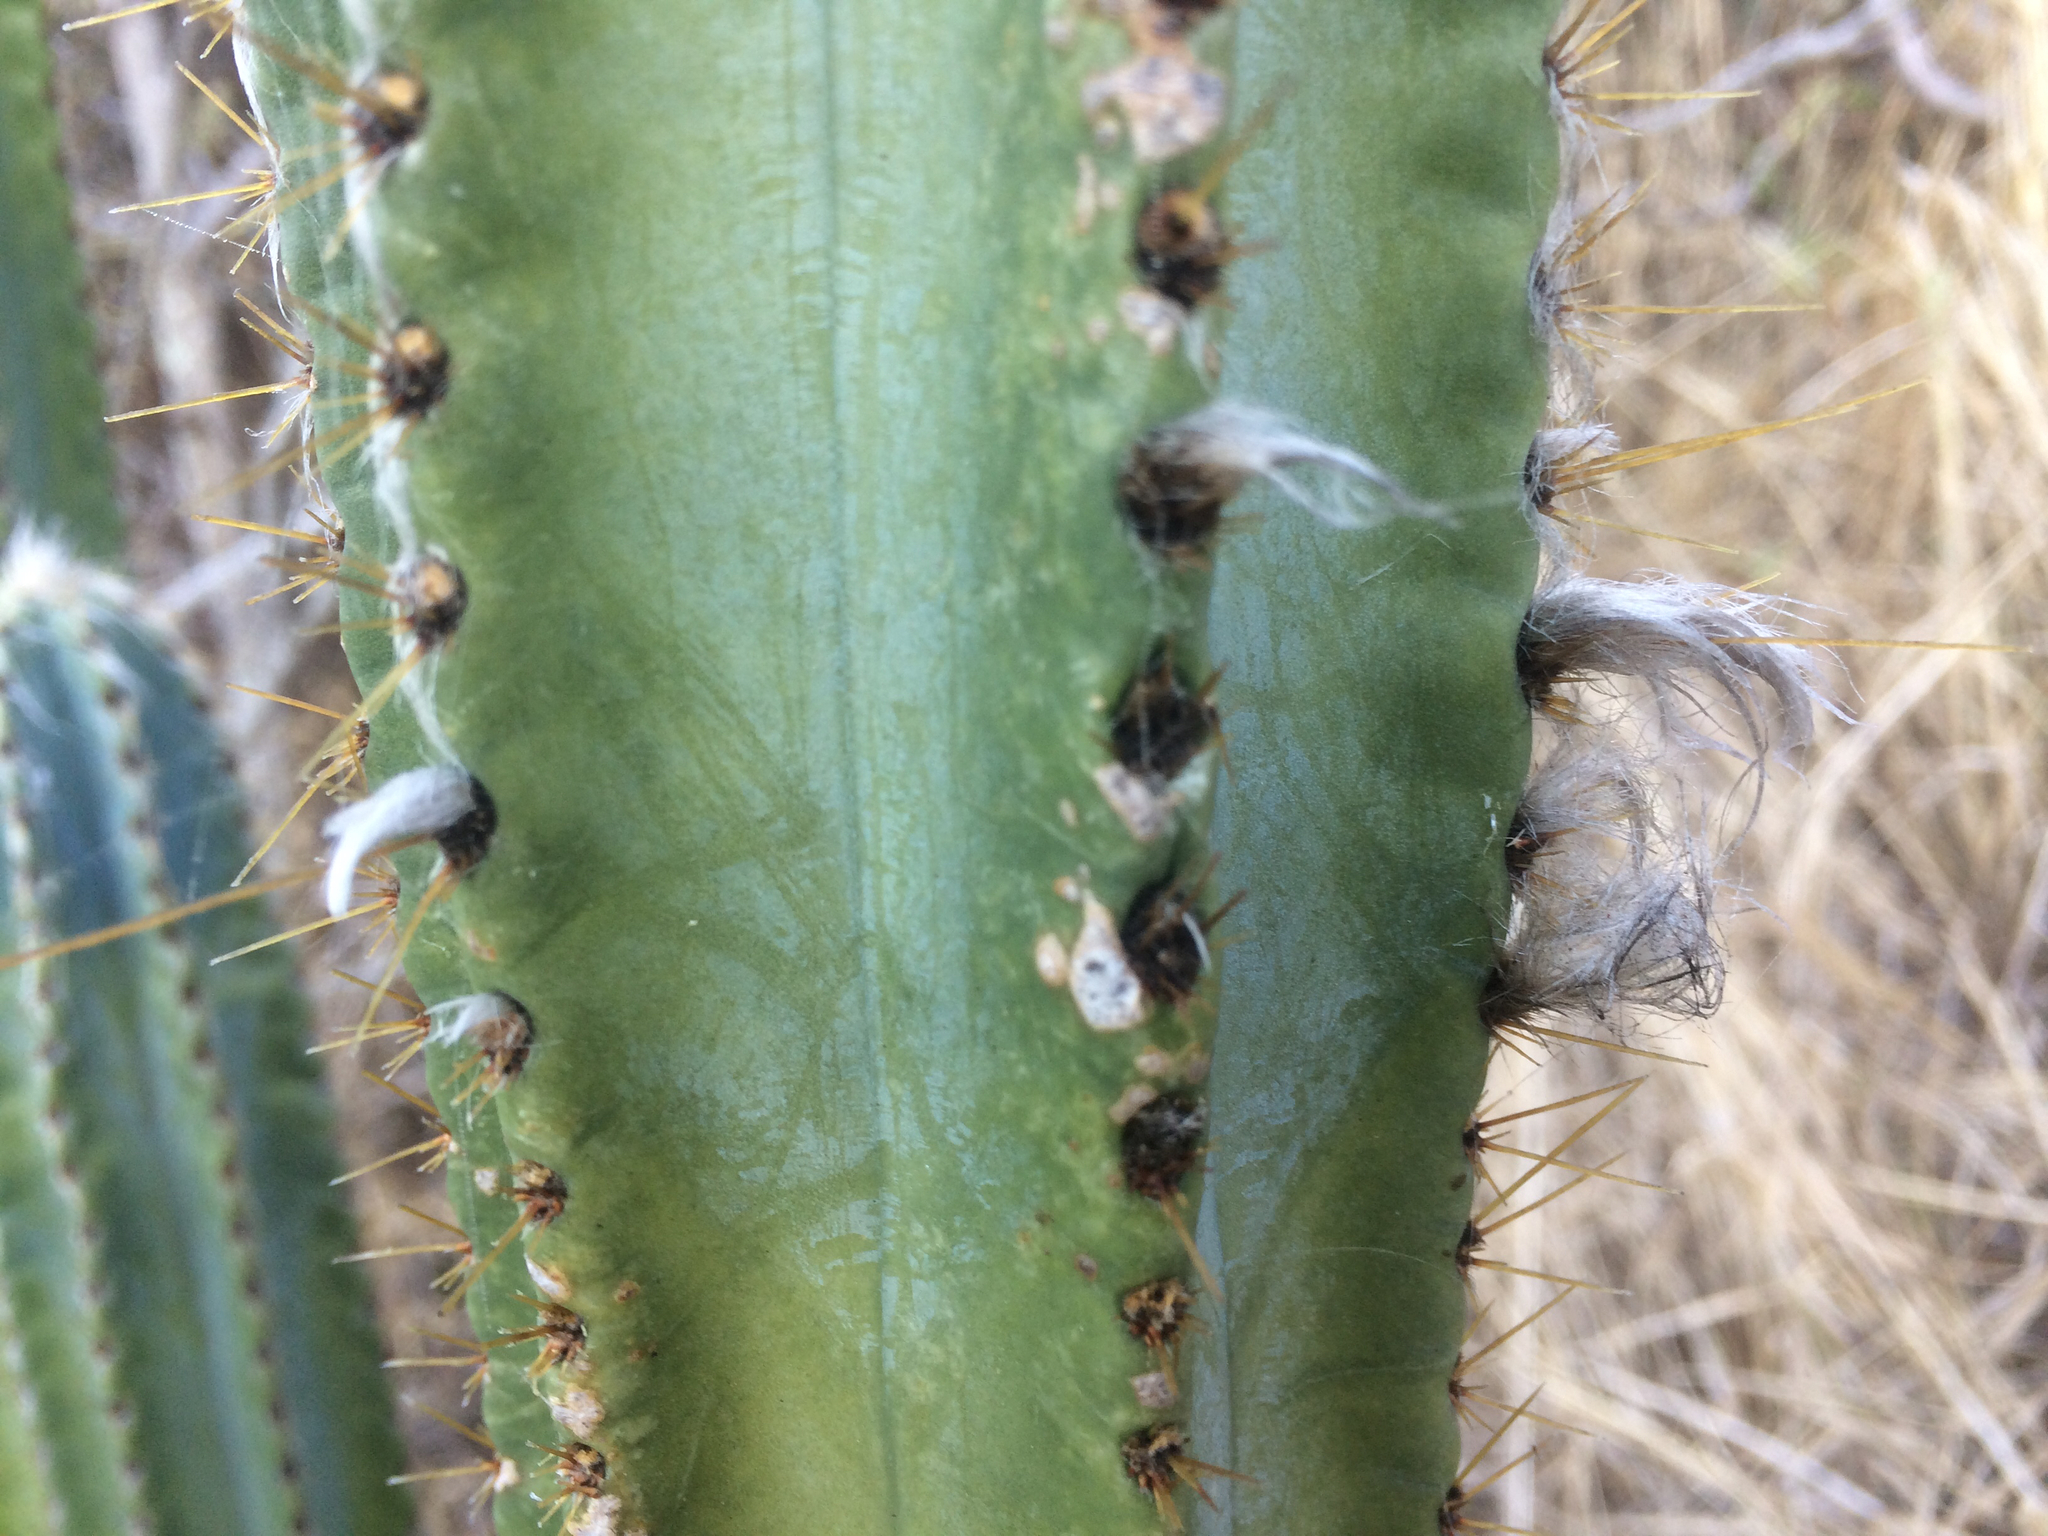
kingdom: Plantae
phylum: Tracheophyta
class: Magnoliopsida
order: Caryophyllales
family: Cactaceae
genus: Pilosocereus
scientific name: Pilosocereus armatus
